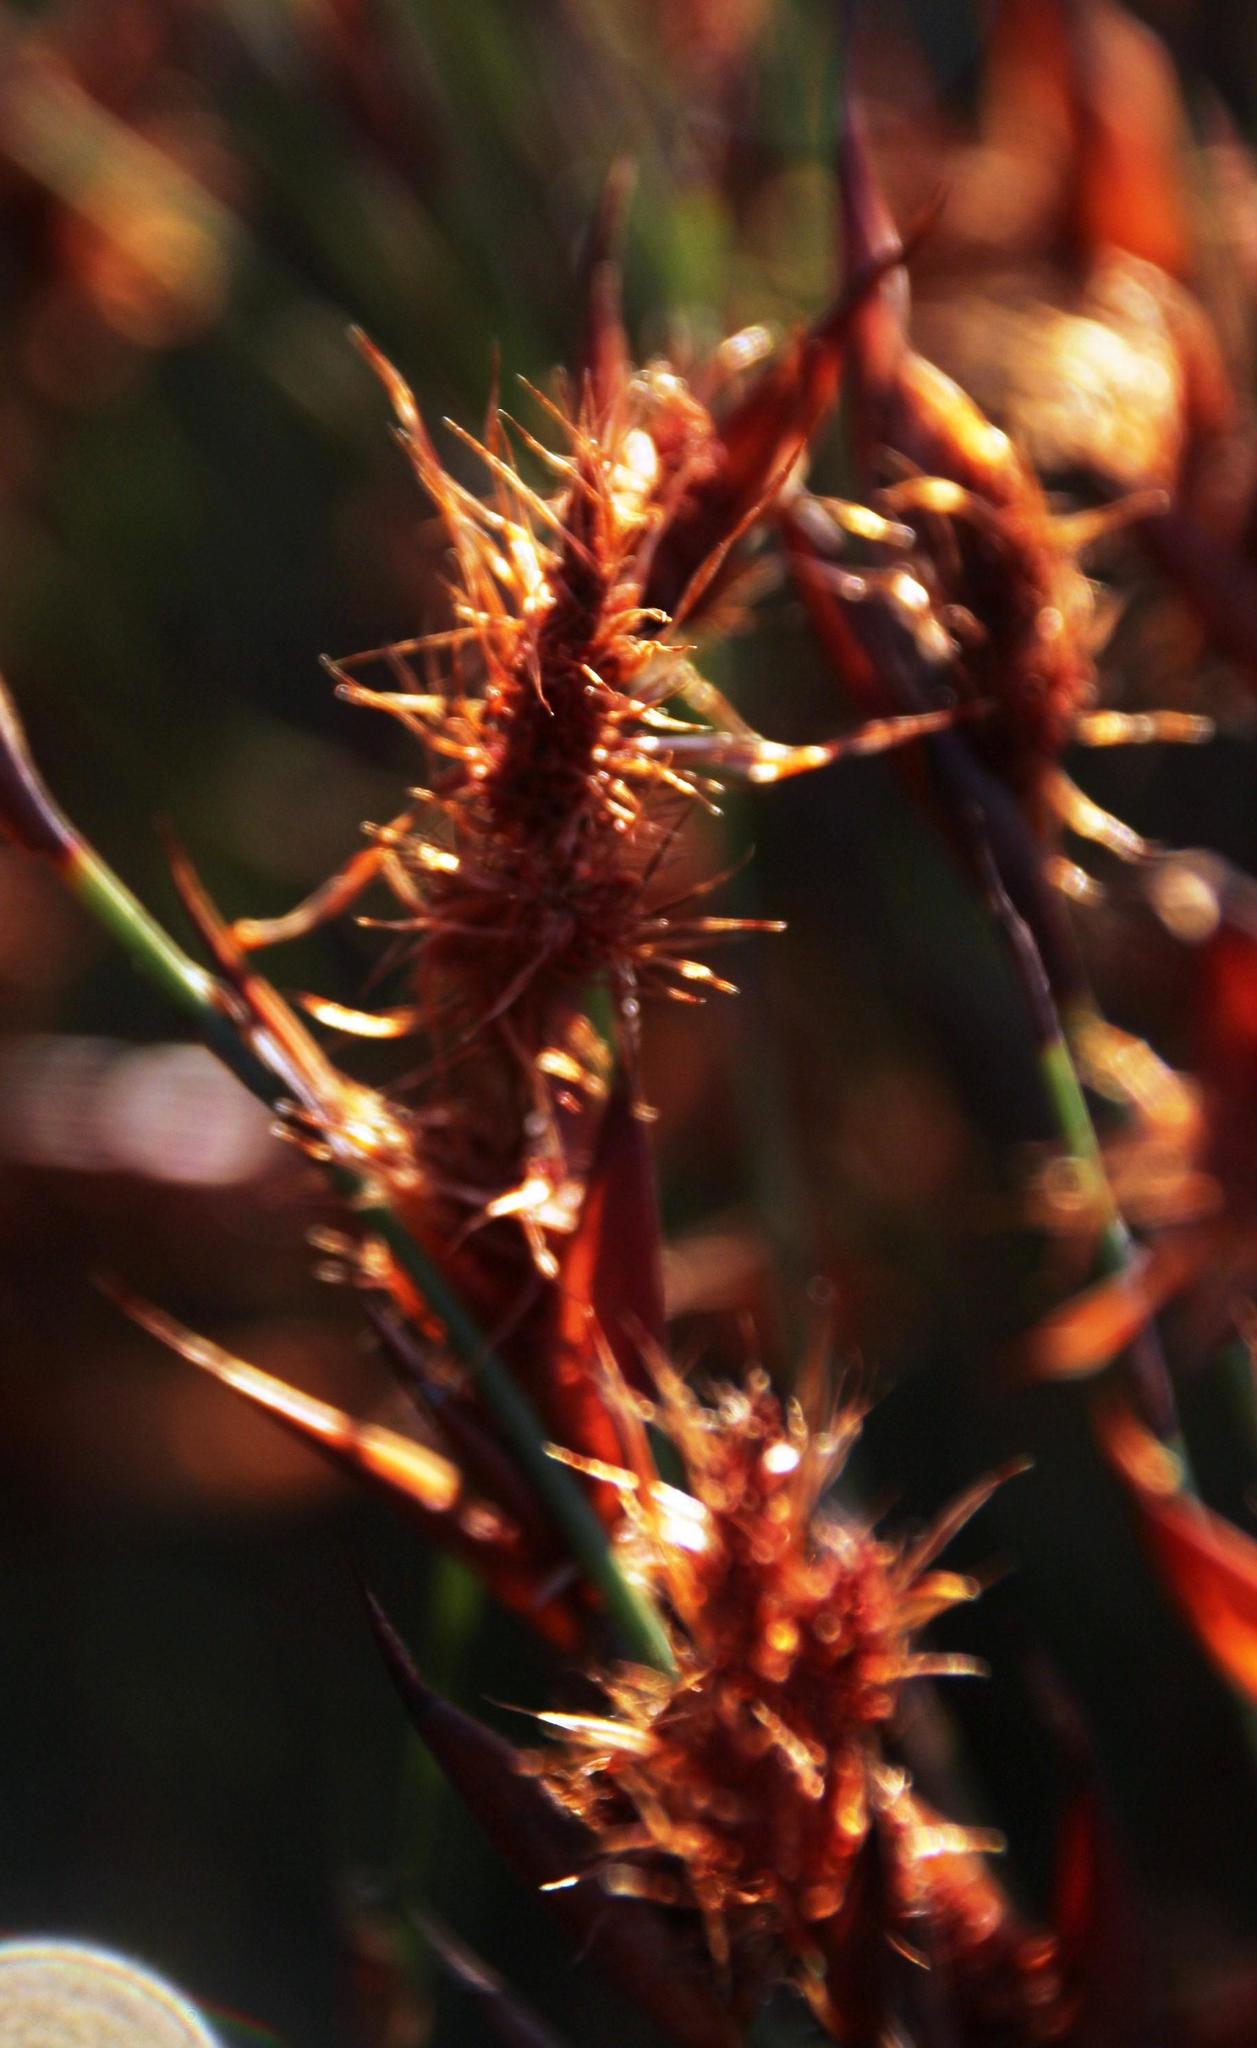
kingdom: Plantae
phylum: Tracheophyta
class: Liliopsida
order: Poales
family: Restionaceae
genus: Willdenowia
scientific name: Willdenowia incurvata
